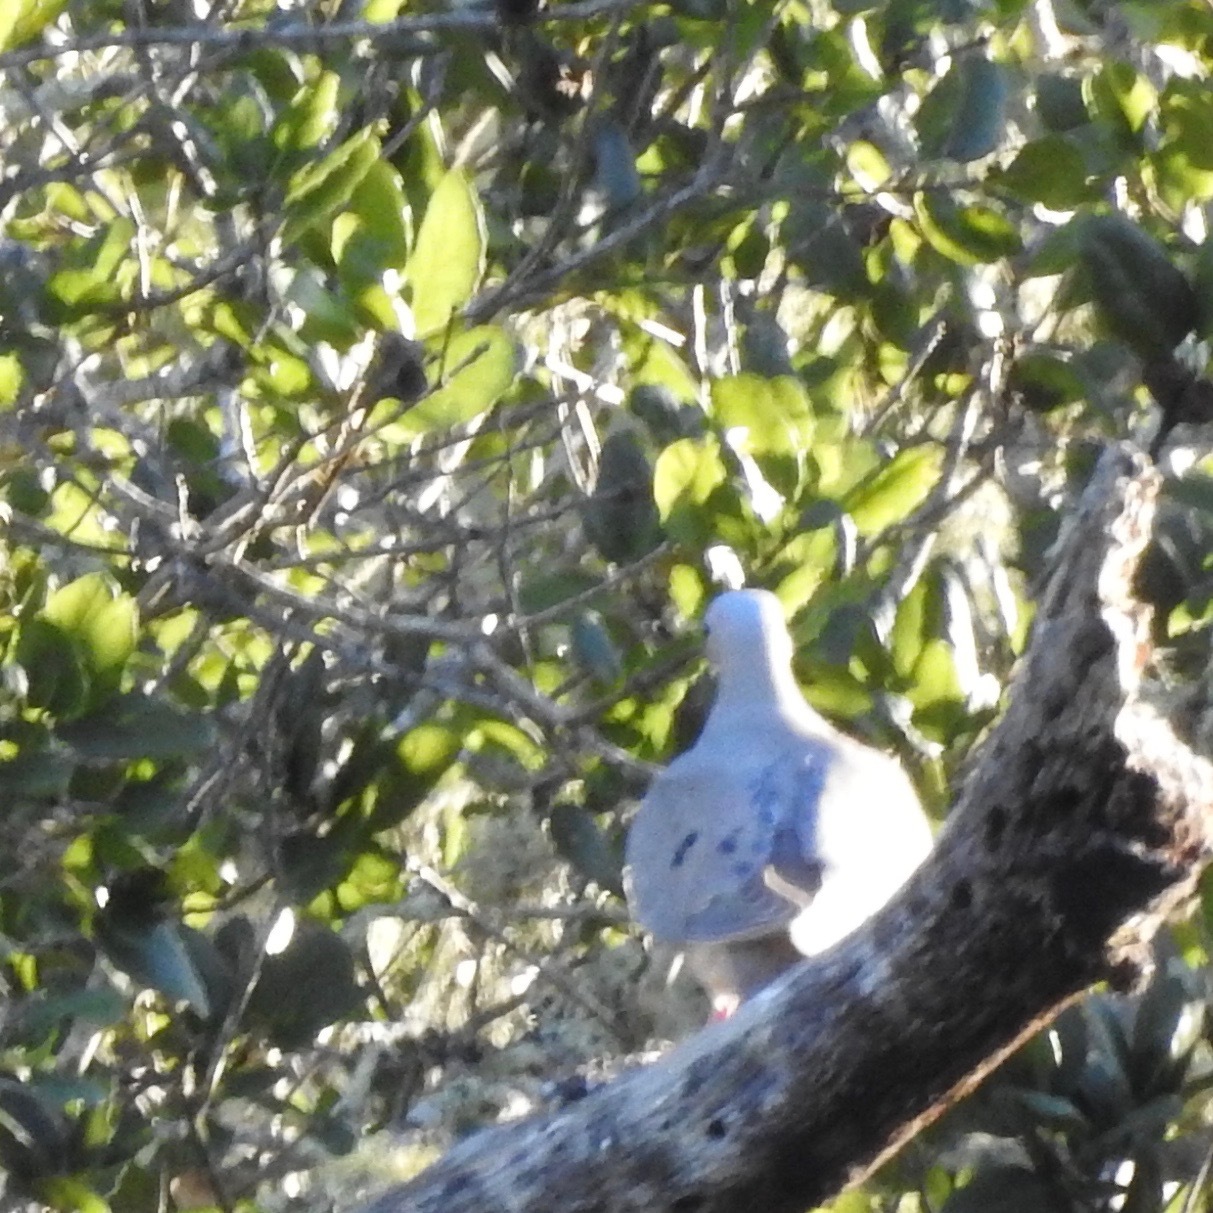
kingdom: Animalia
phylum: Chordata
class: Aves
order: Columbiformes
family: Columbidae
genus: Zenaida
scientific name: Zenaida macroura
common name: Mourning dove
